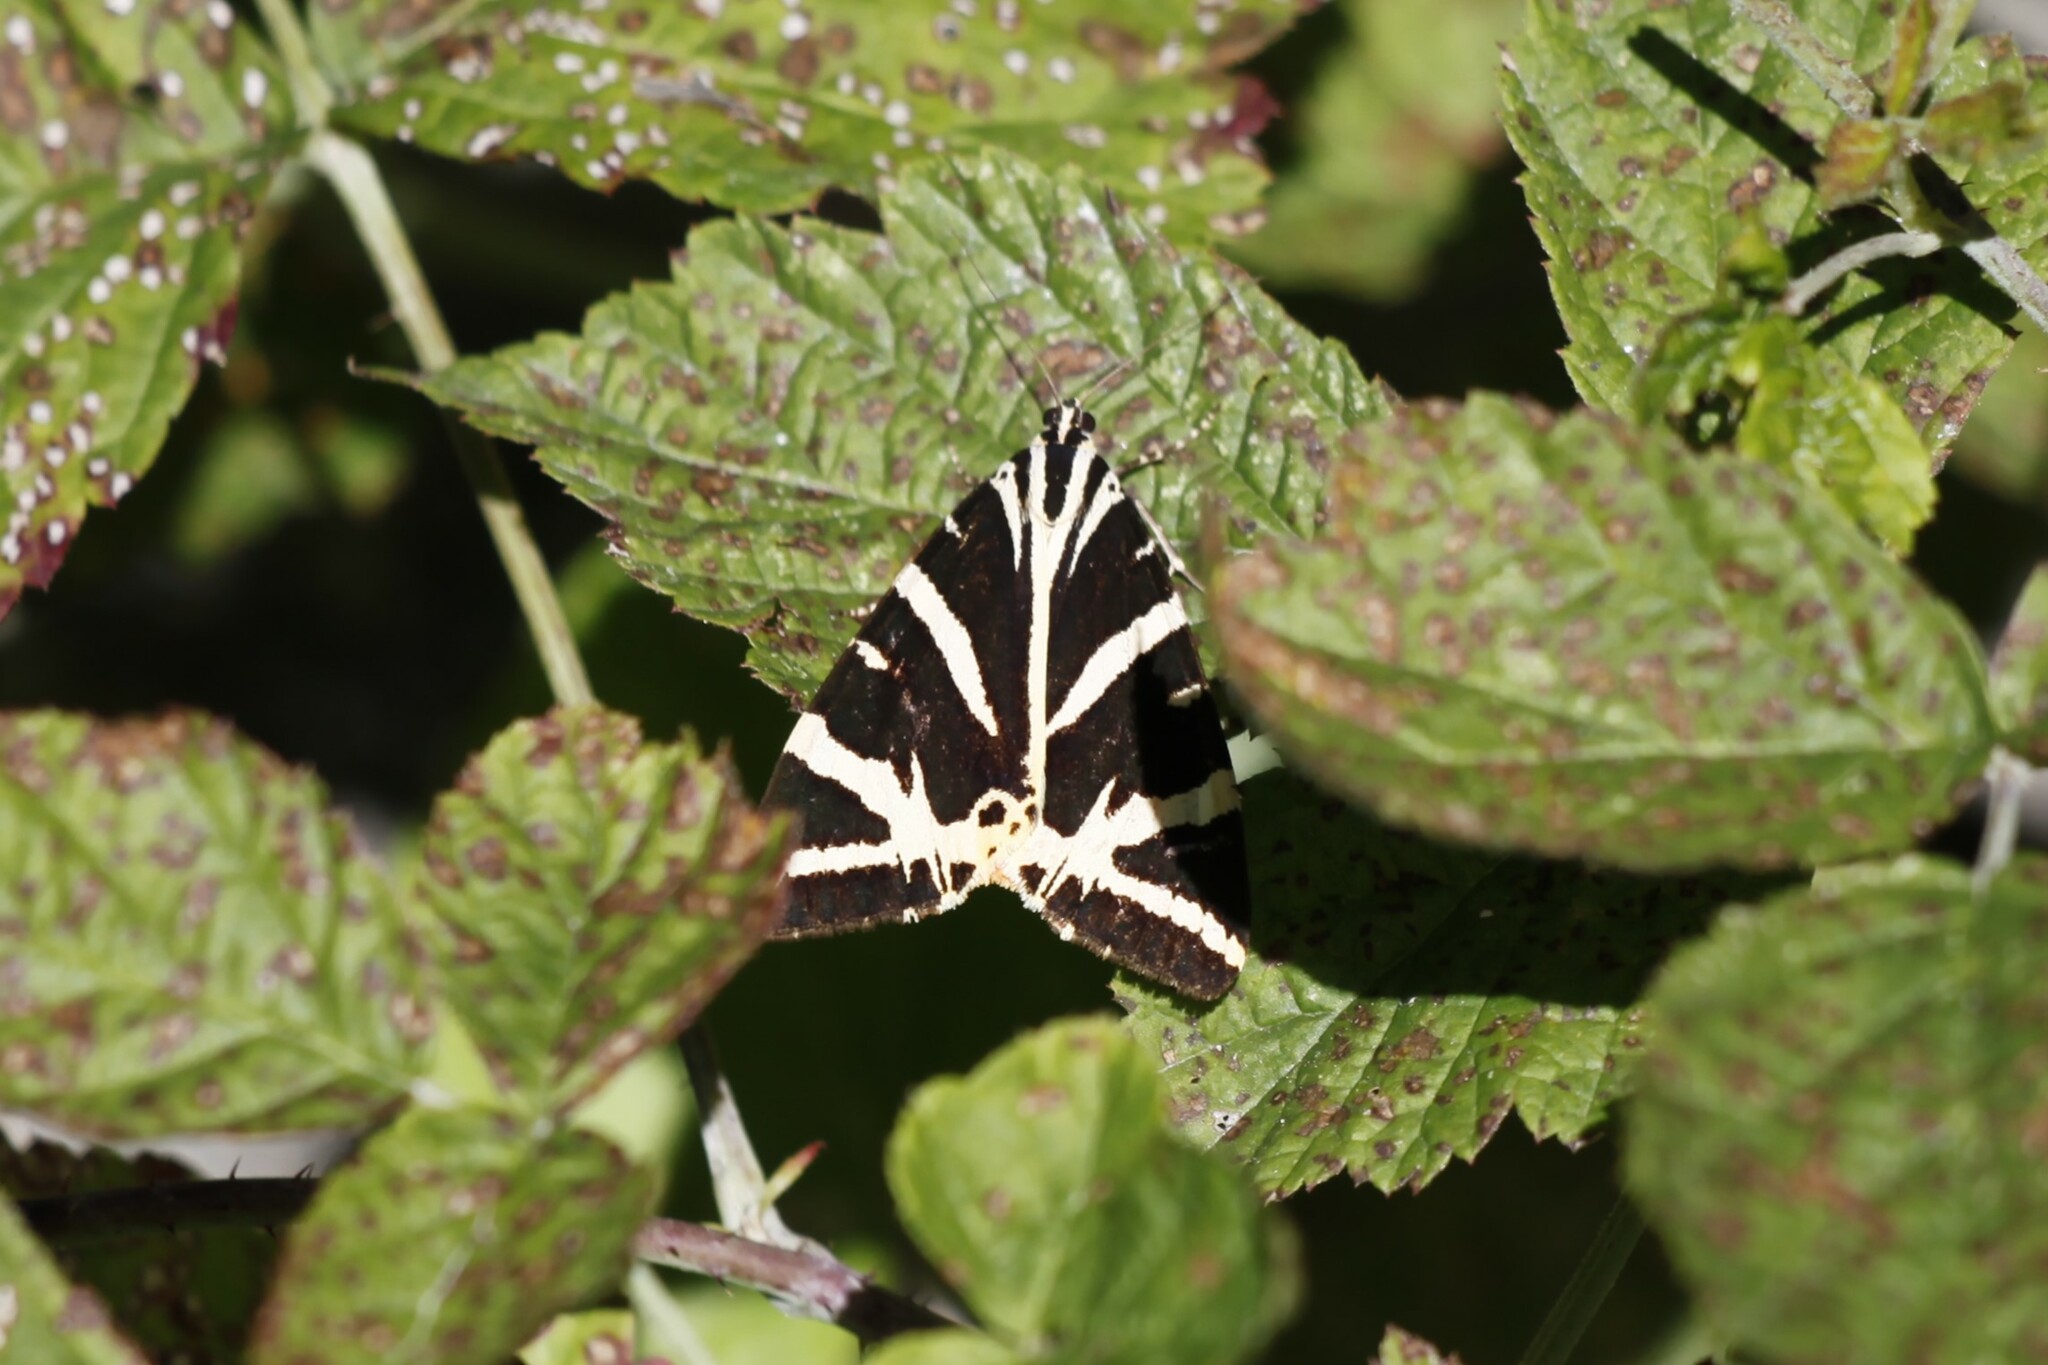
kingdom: Animalia
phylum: Arthropoda
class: Insecta
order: Lepidoptera
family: Erebidae
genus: Euplagia
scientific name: Euplagia quadripunctaria
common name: Jersey tiger
